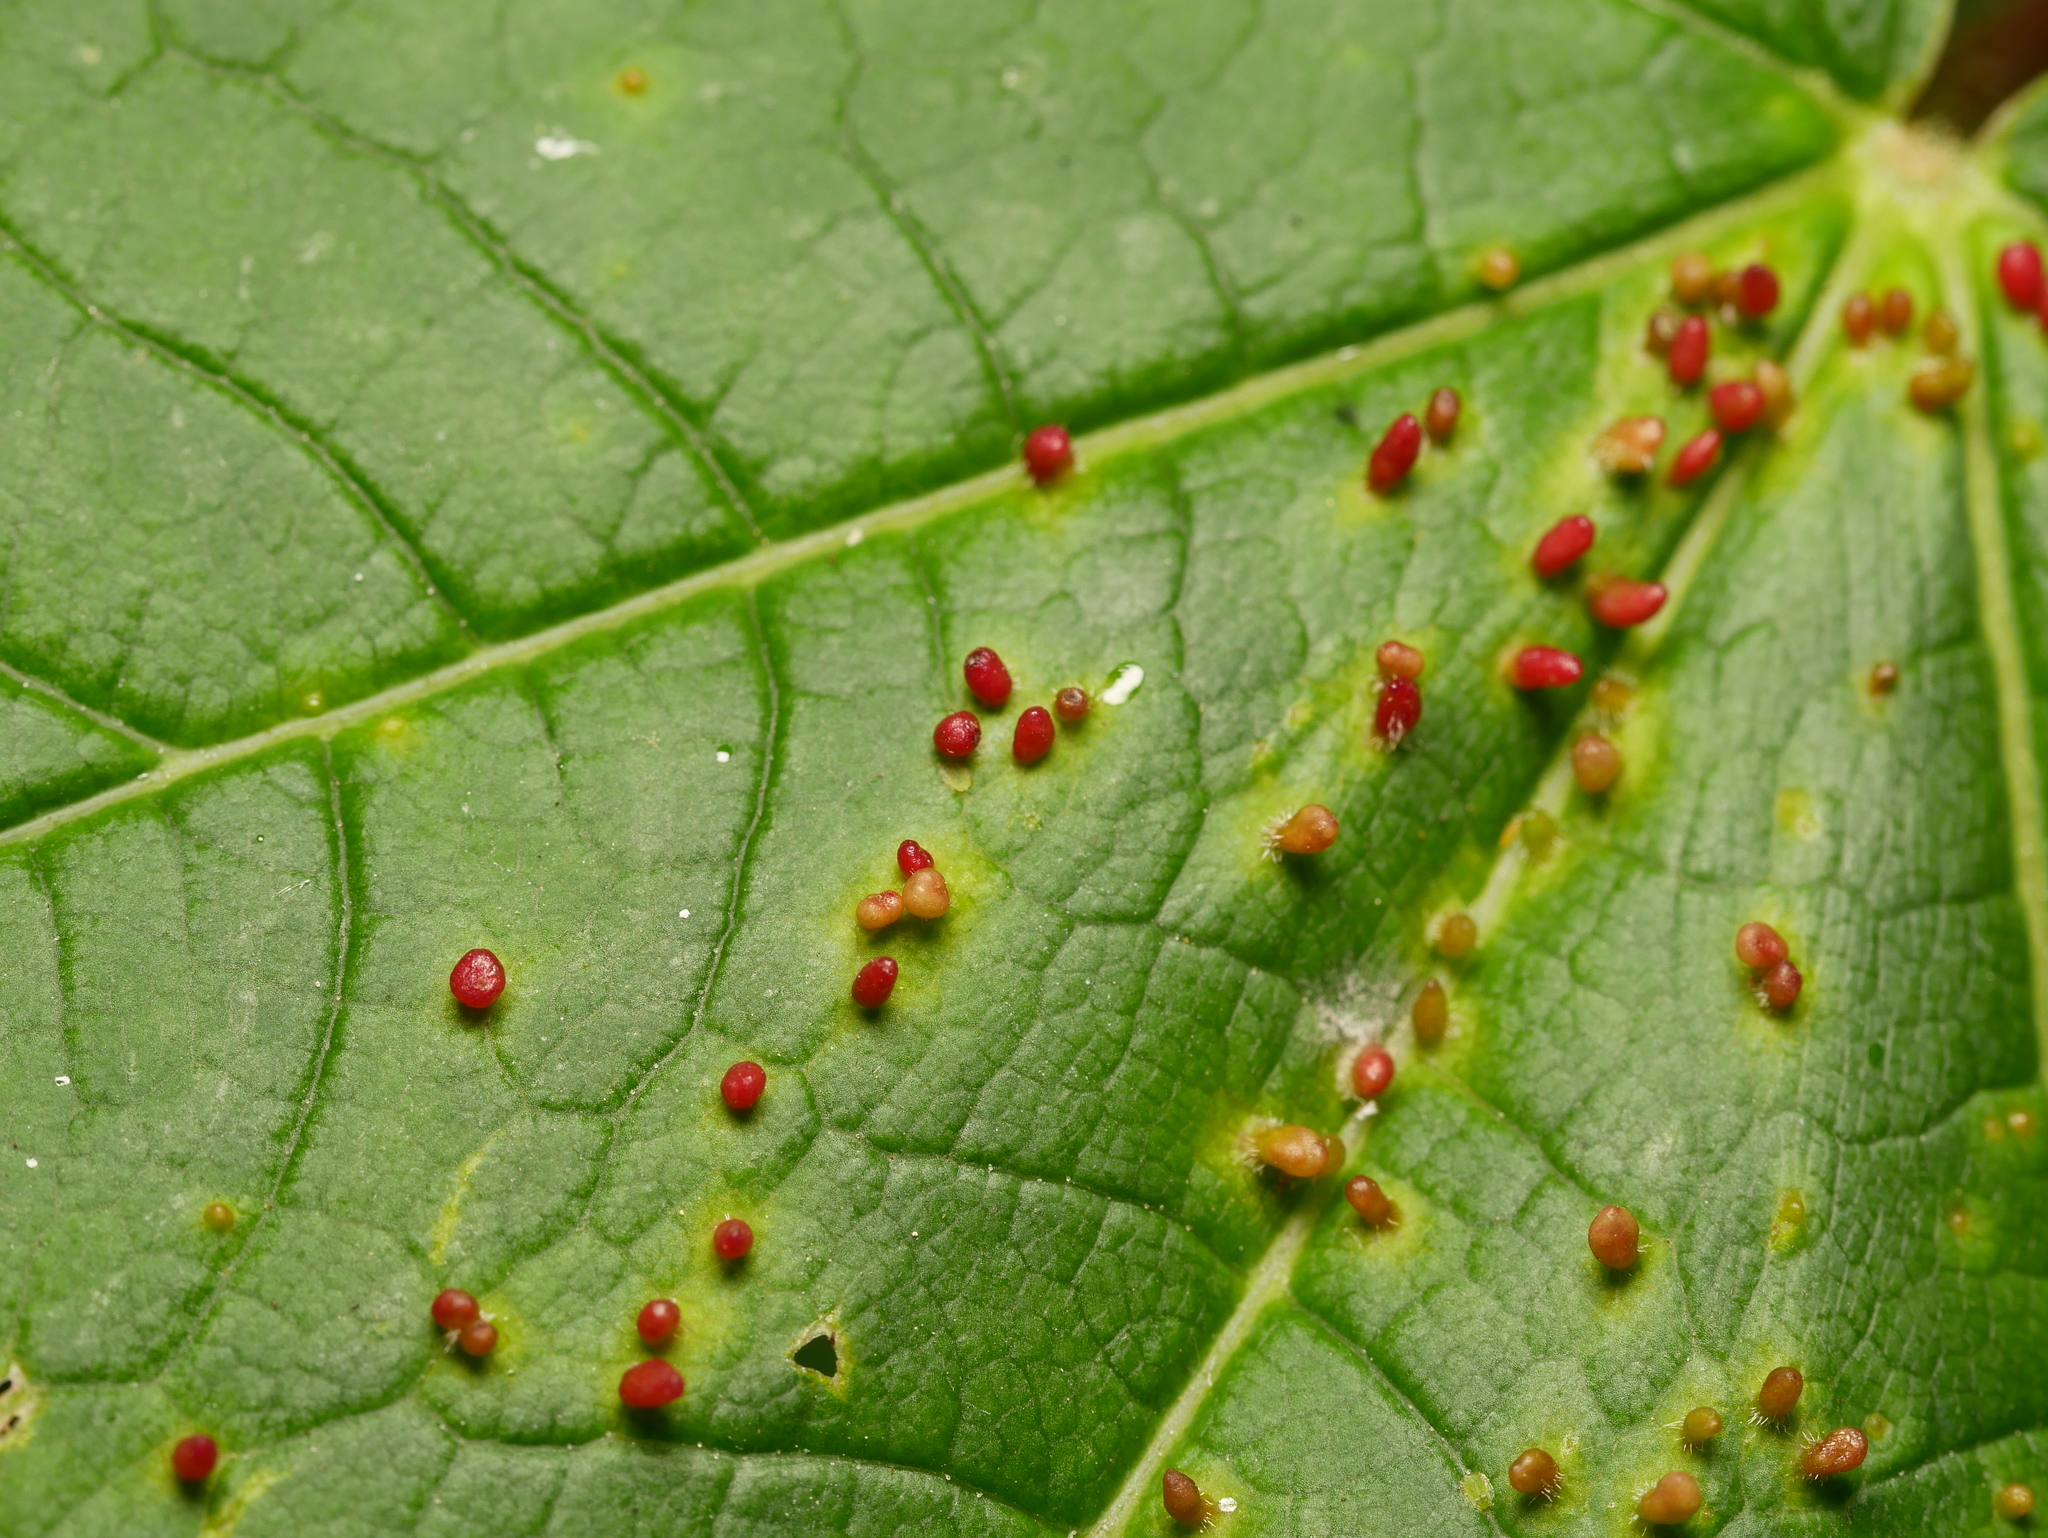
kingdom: Animalia
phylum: Arthropoda
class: Arachnida
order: Trombidiformes
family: Eriophyidae
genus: Aceria
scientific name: Aceria cephaloneus
